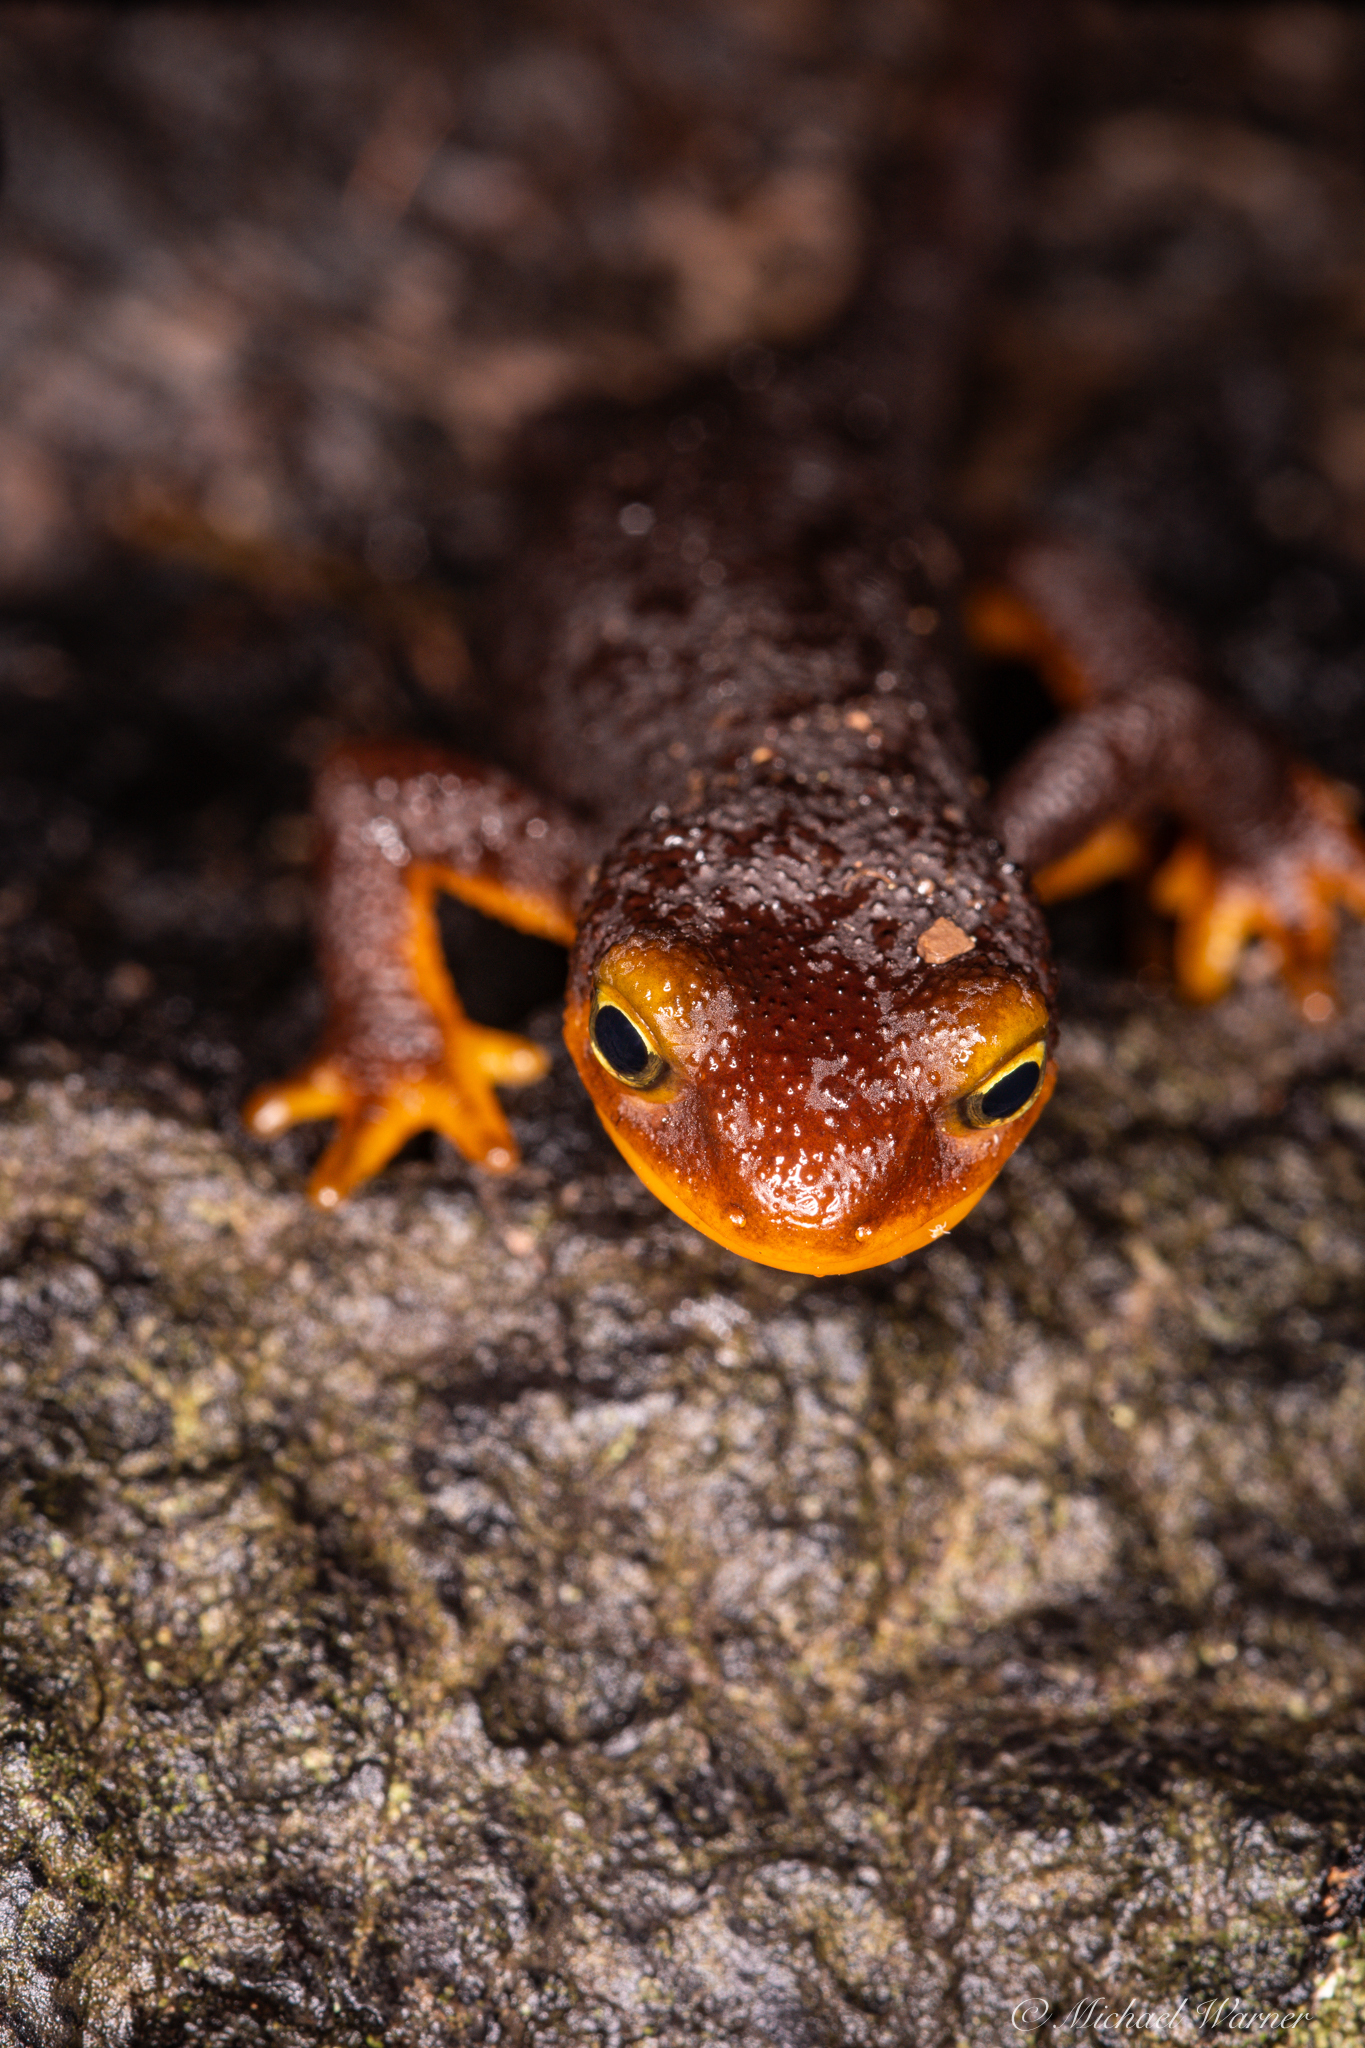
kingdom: Animalia
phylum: Chordata
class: Amphibia
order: Caudata
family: Salamandridae
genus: Taricha
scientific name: Taricha torosa
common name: California newt
